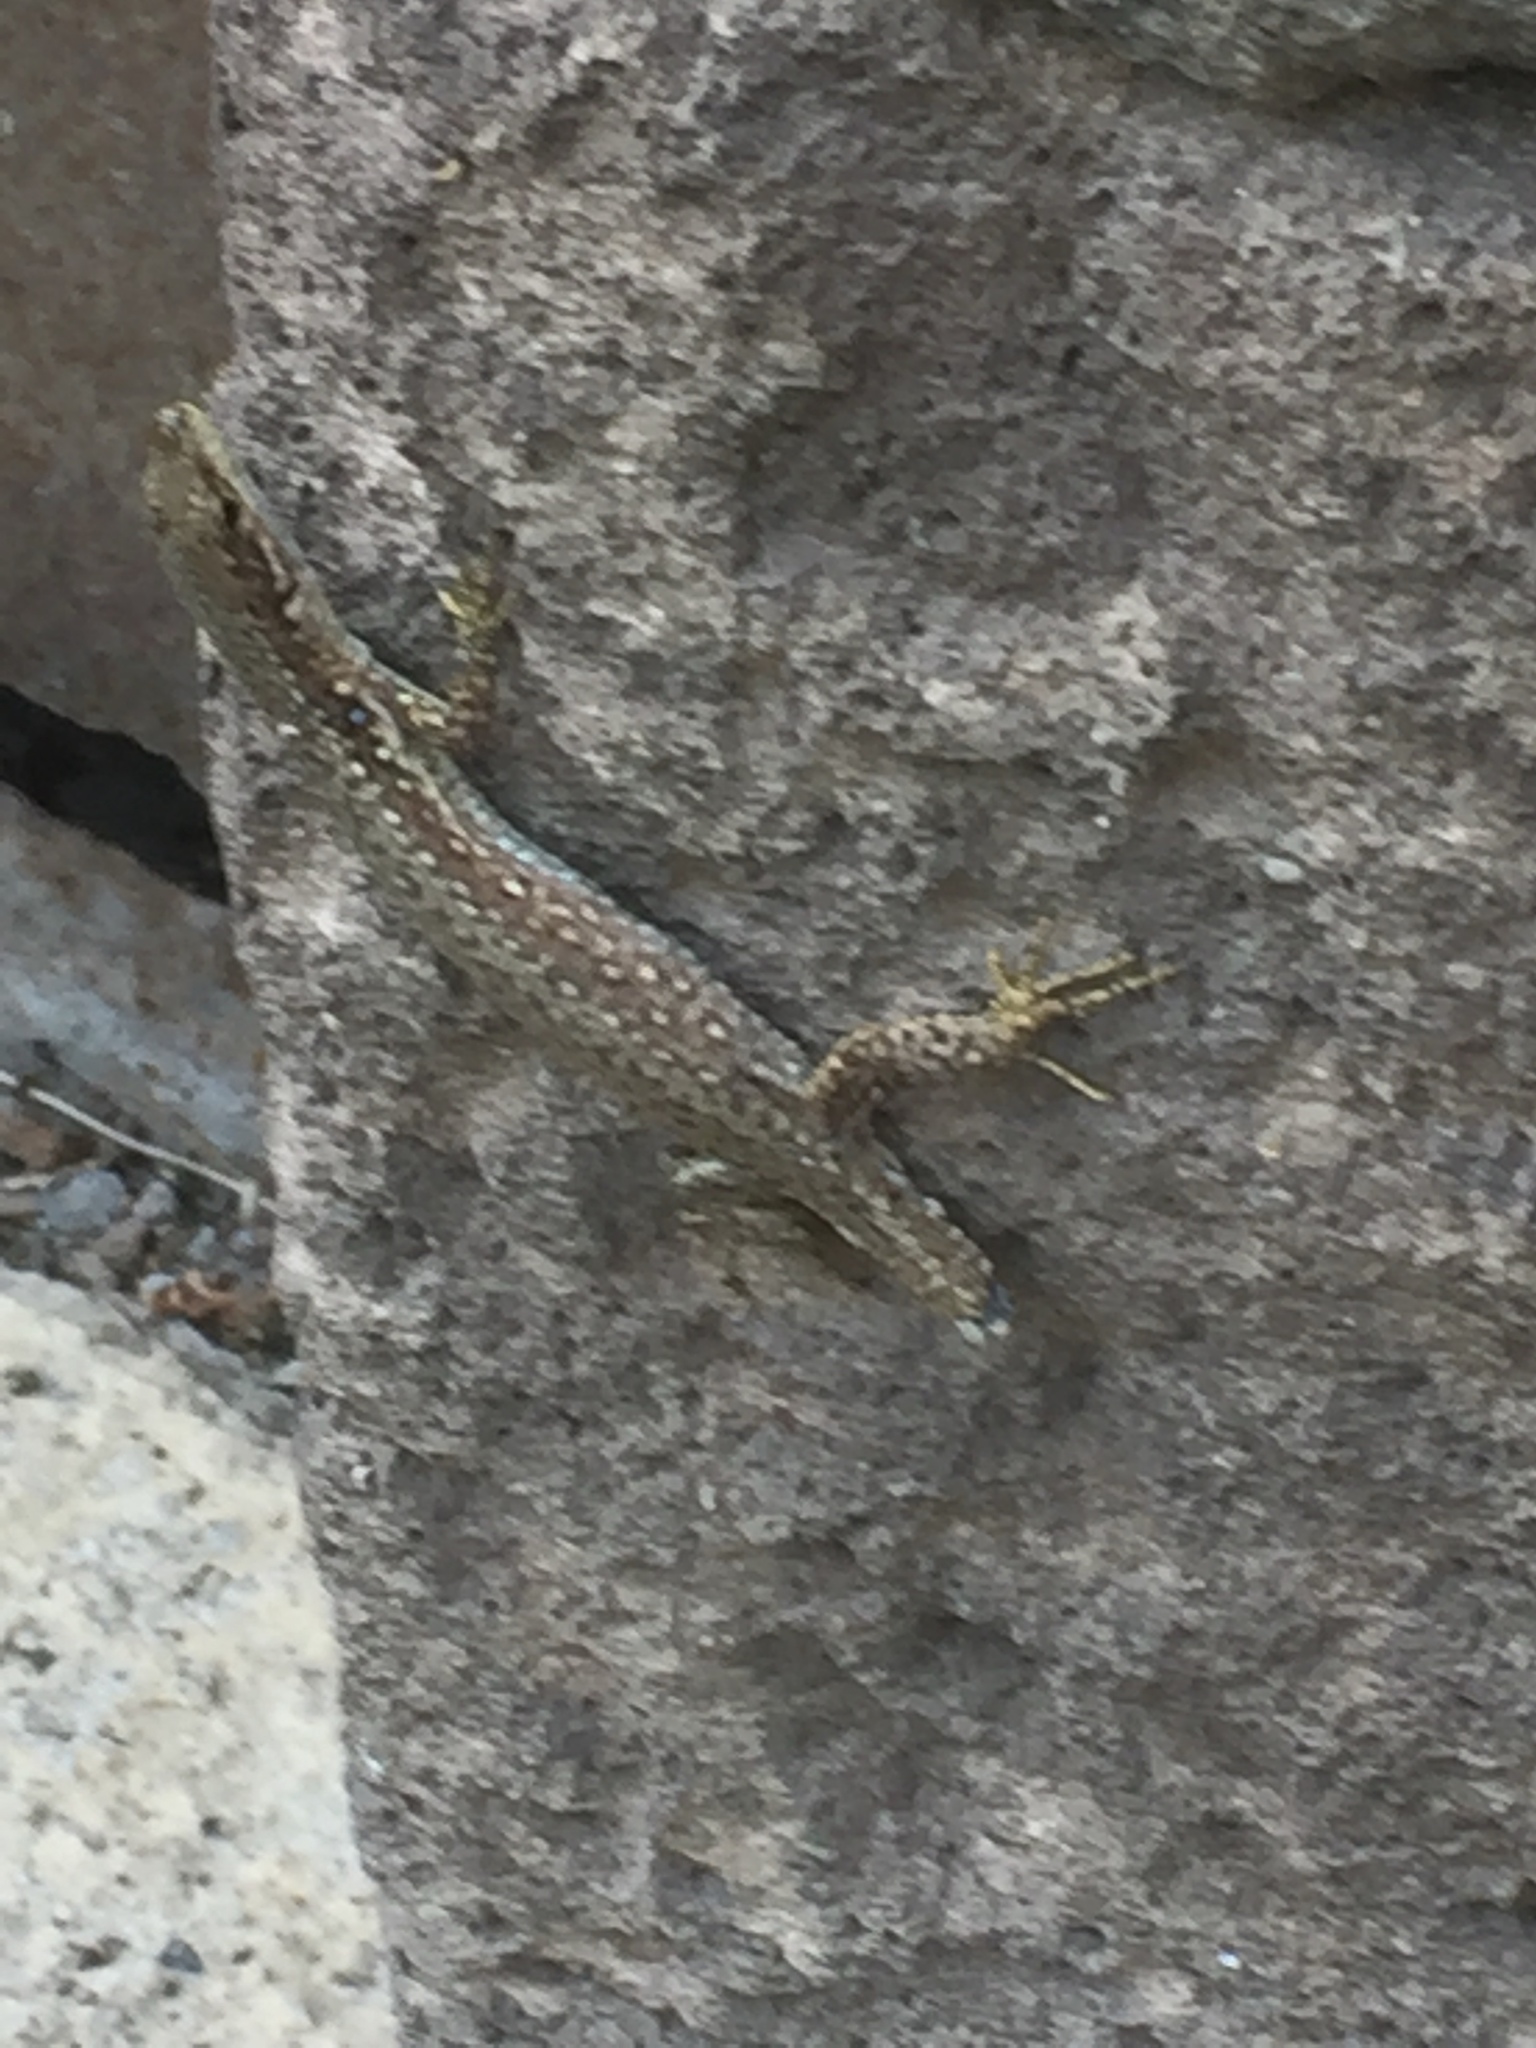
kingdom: Animalia
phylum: Chordata
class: Squamata
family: Lacertidae
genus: Darevskia
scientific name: Darevskia raddei
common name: Radde's lizard
